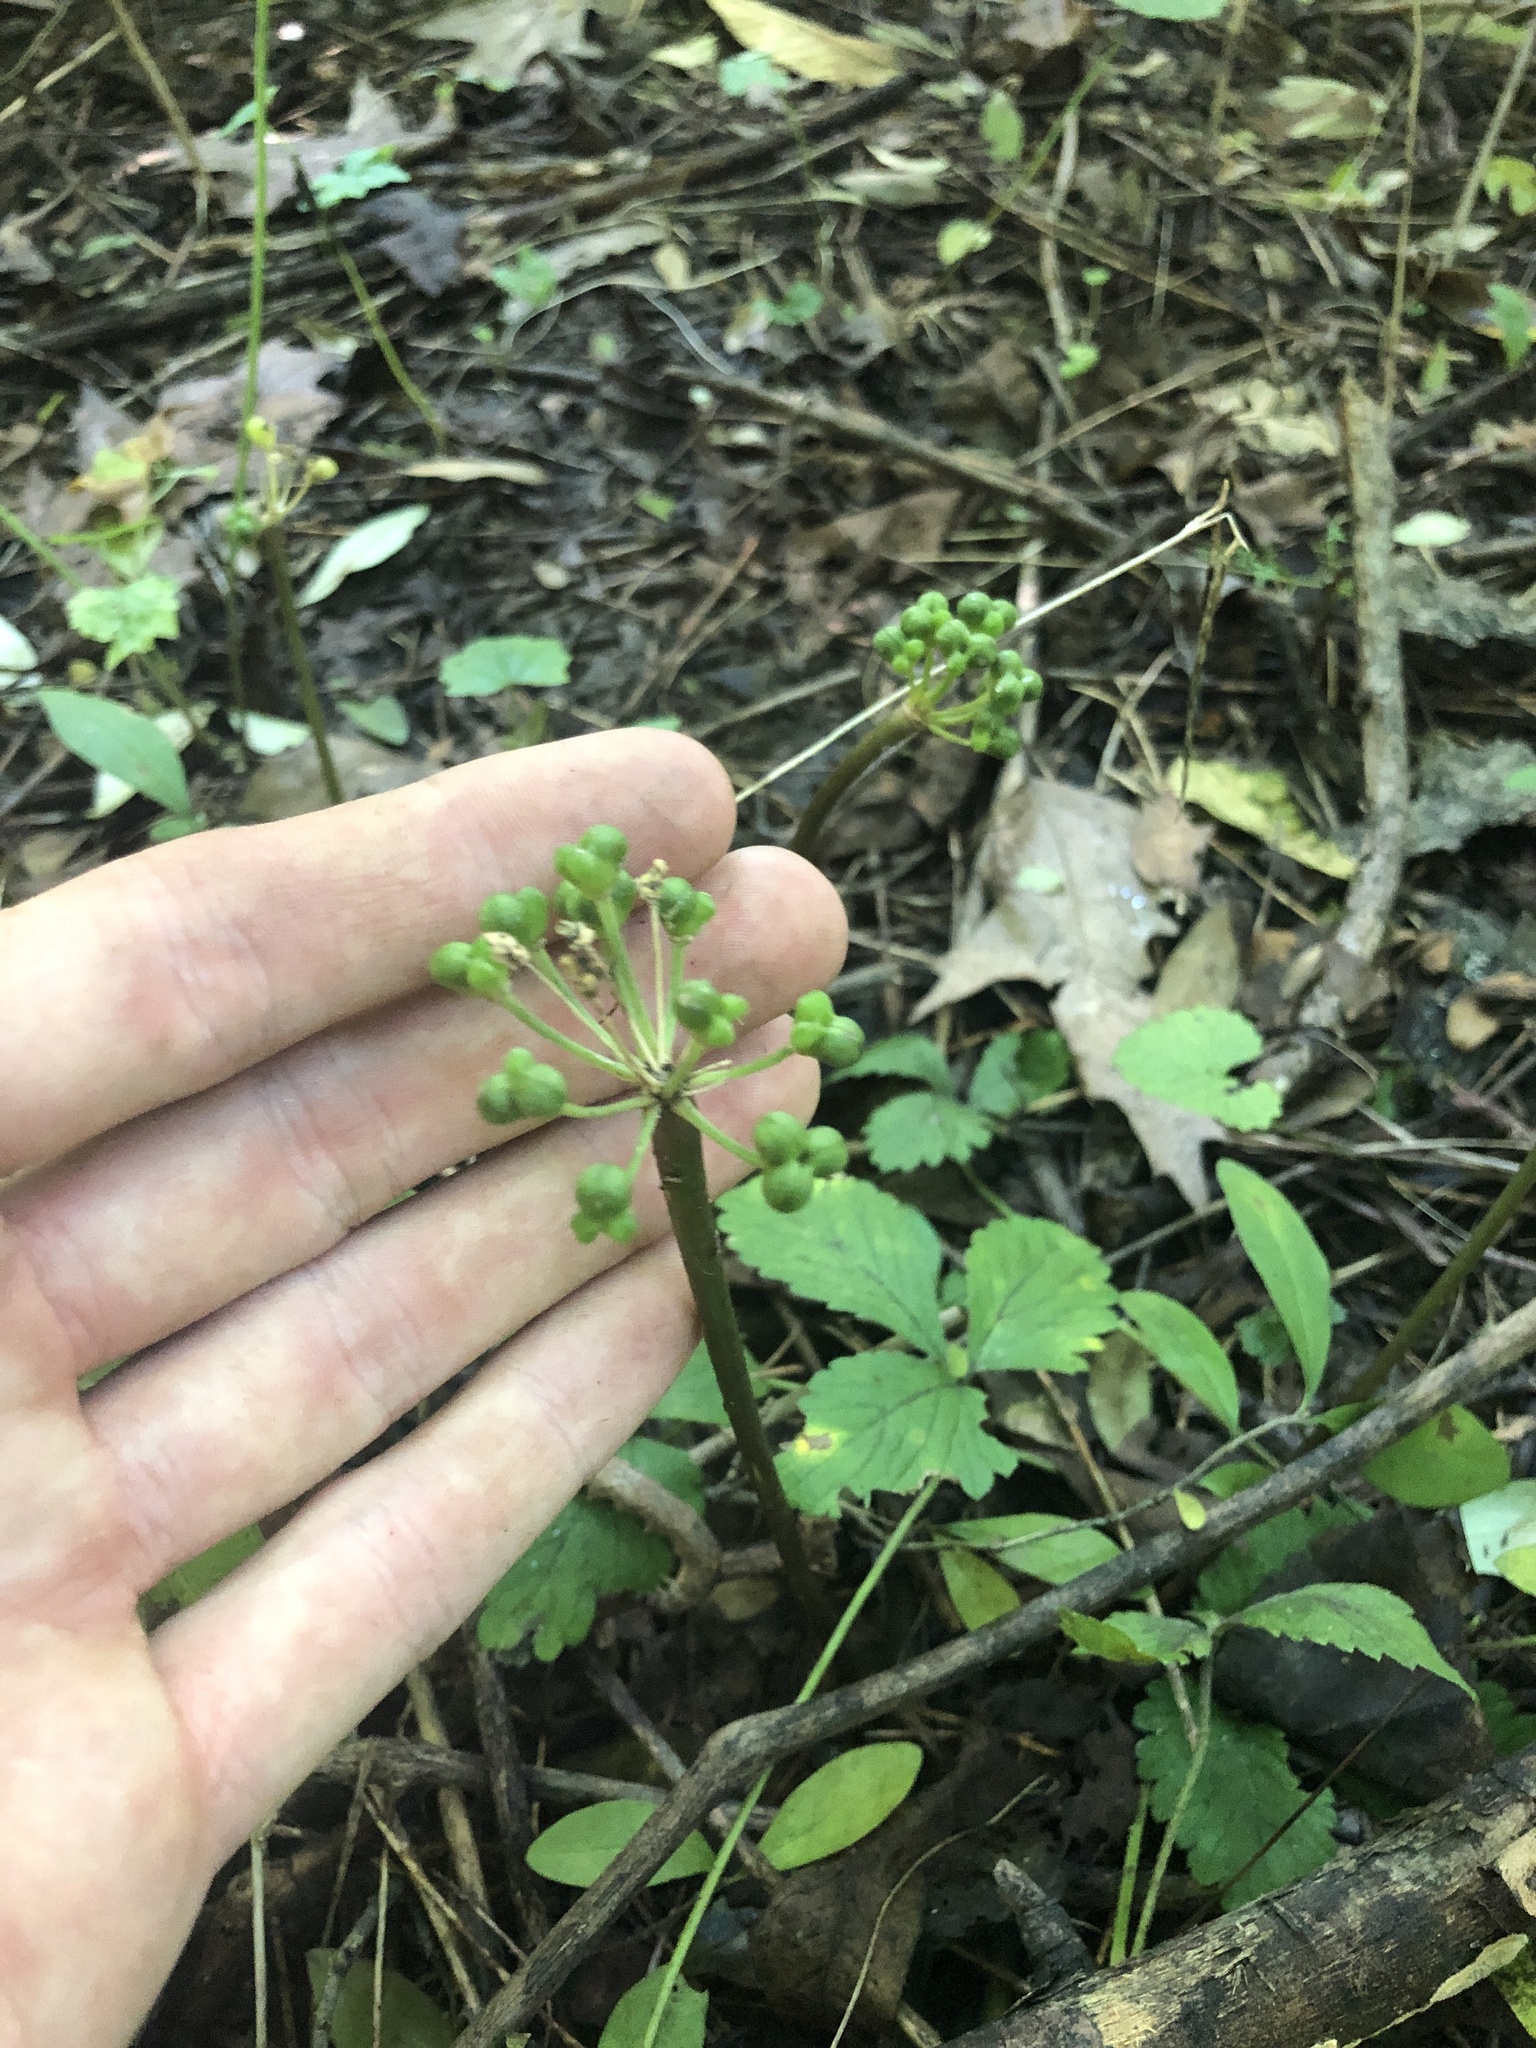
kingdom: Plantae
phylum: Tracheophyta
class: Liliopsida
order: Asparagales
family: Amaryllidaceae
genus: Allium
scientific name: Allium tricoccum
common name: Ramp
